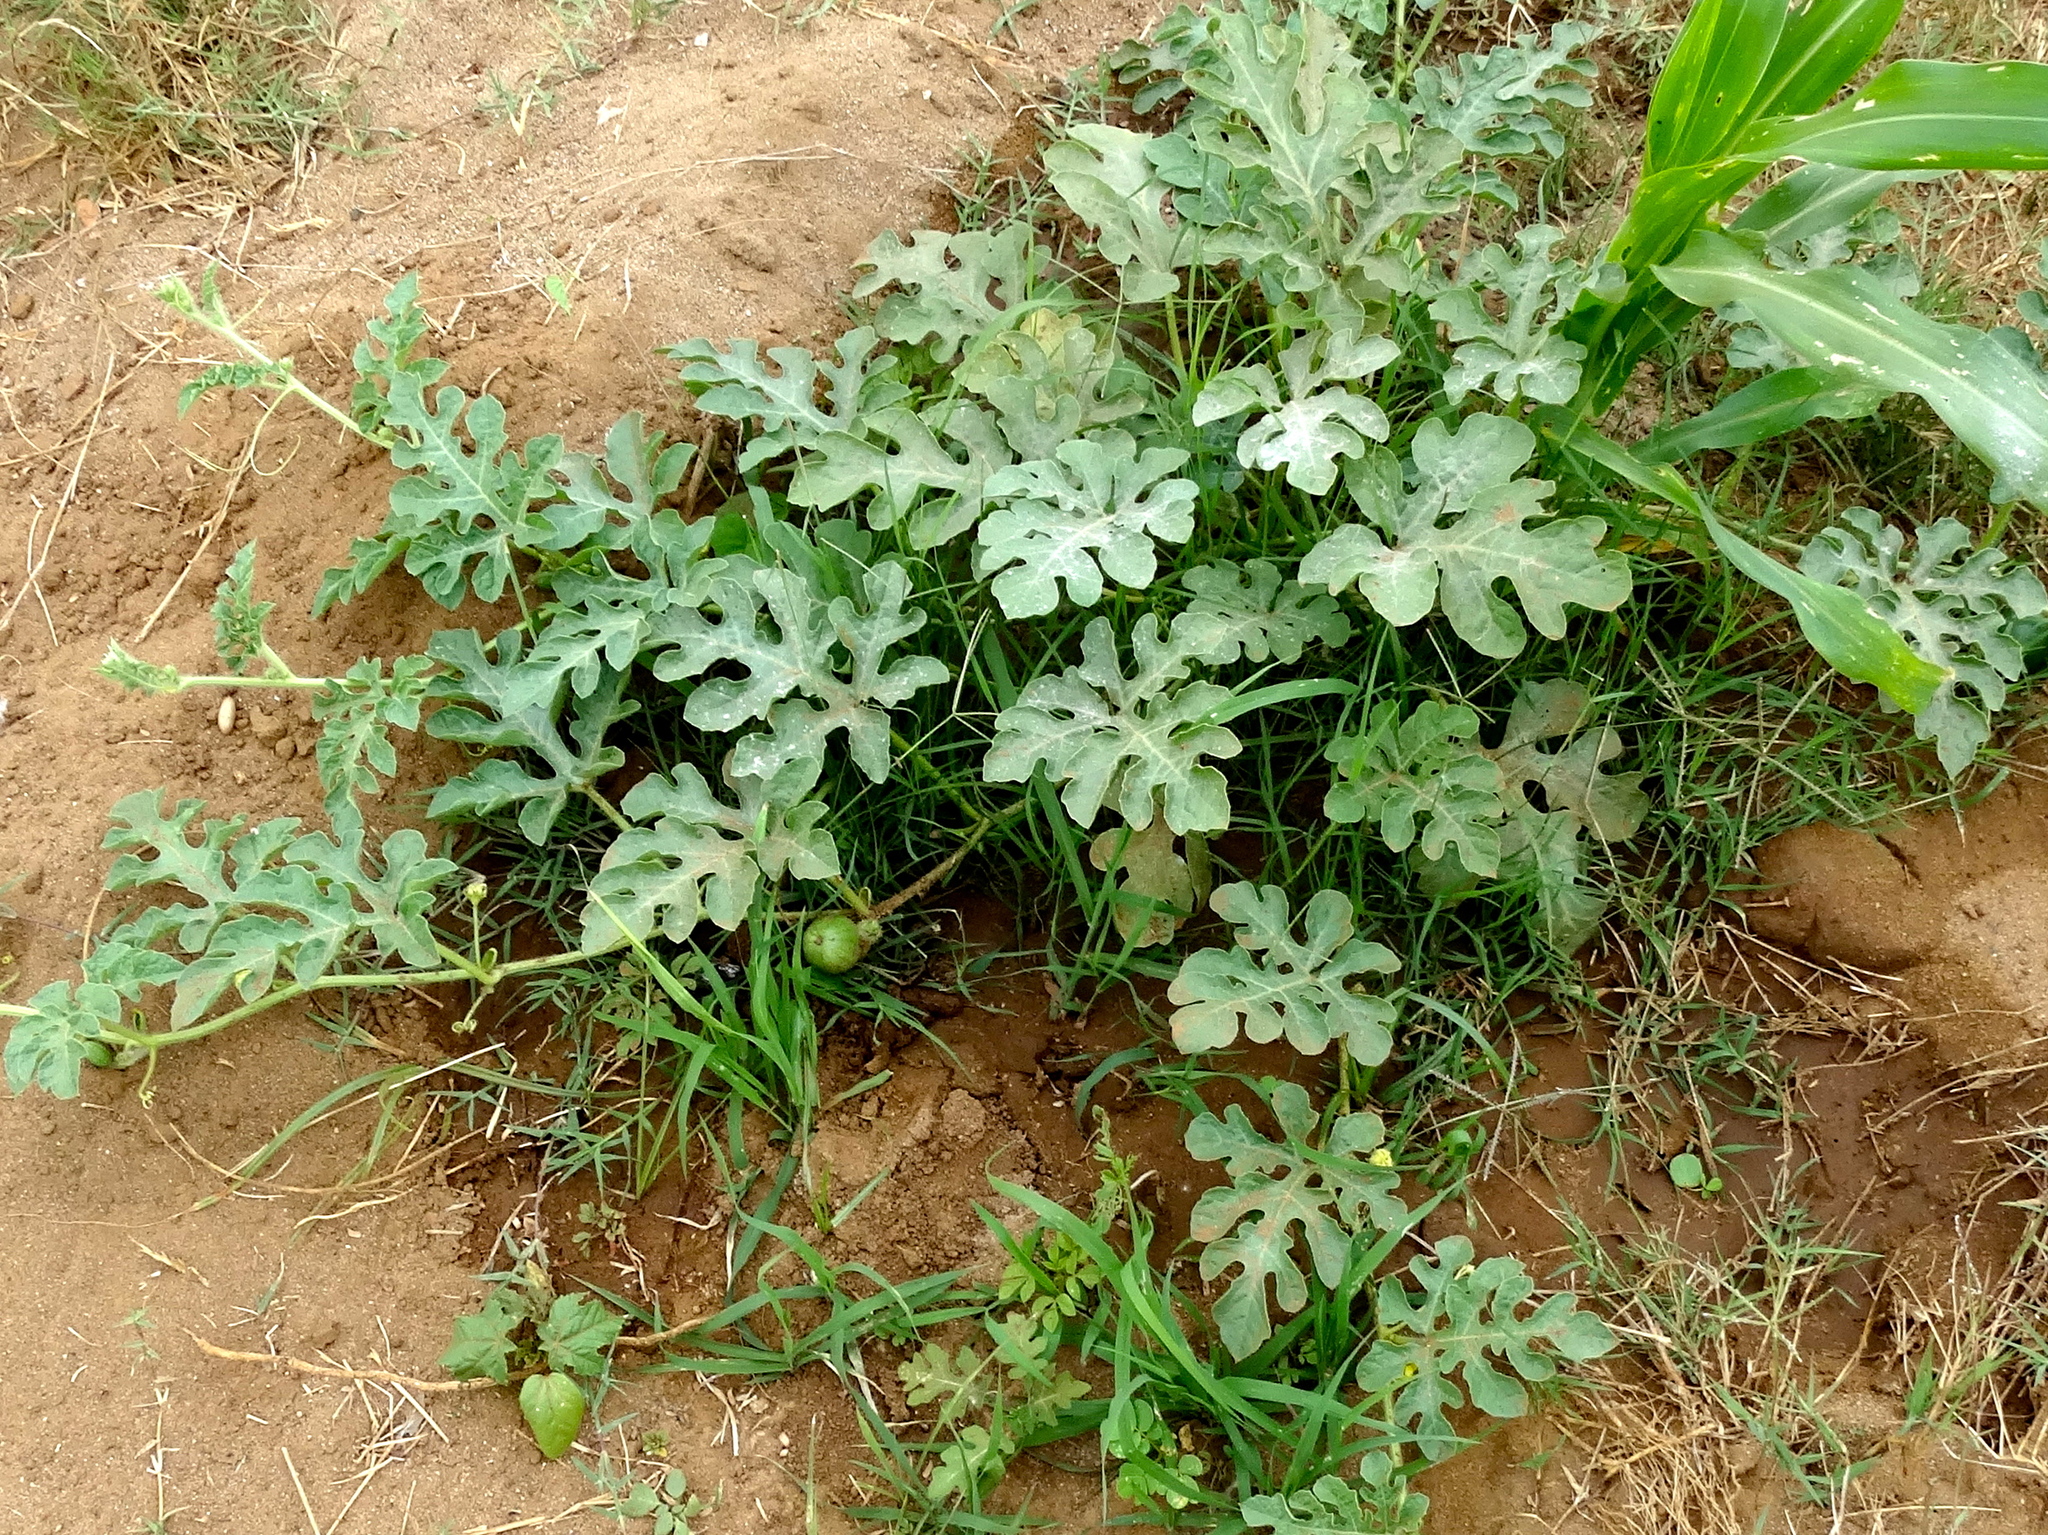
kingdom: Plantae
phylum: Tracheophyta
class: Magnoliopsida
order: Cucurbitales
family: Cucurbitaceae
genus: Citrullus
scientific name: Citrullus lanatus
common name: Watermelon
